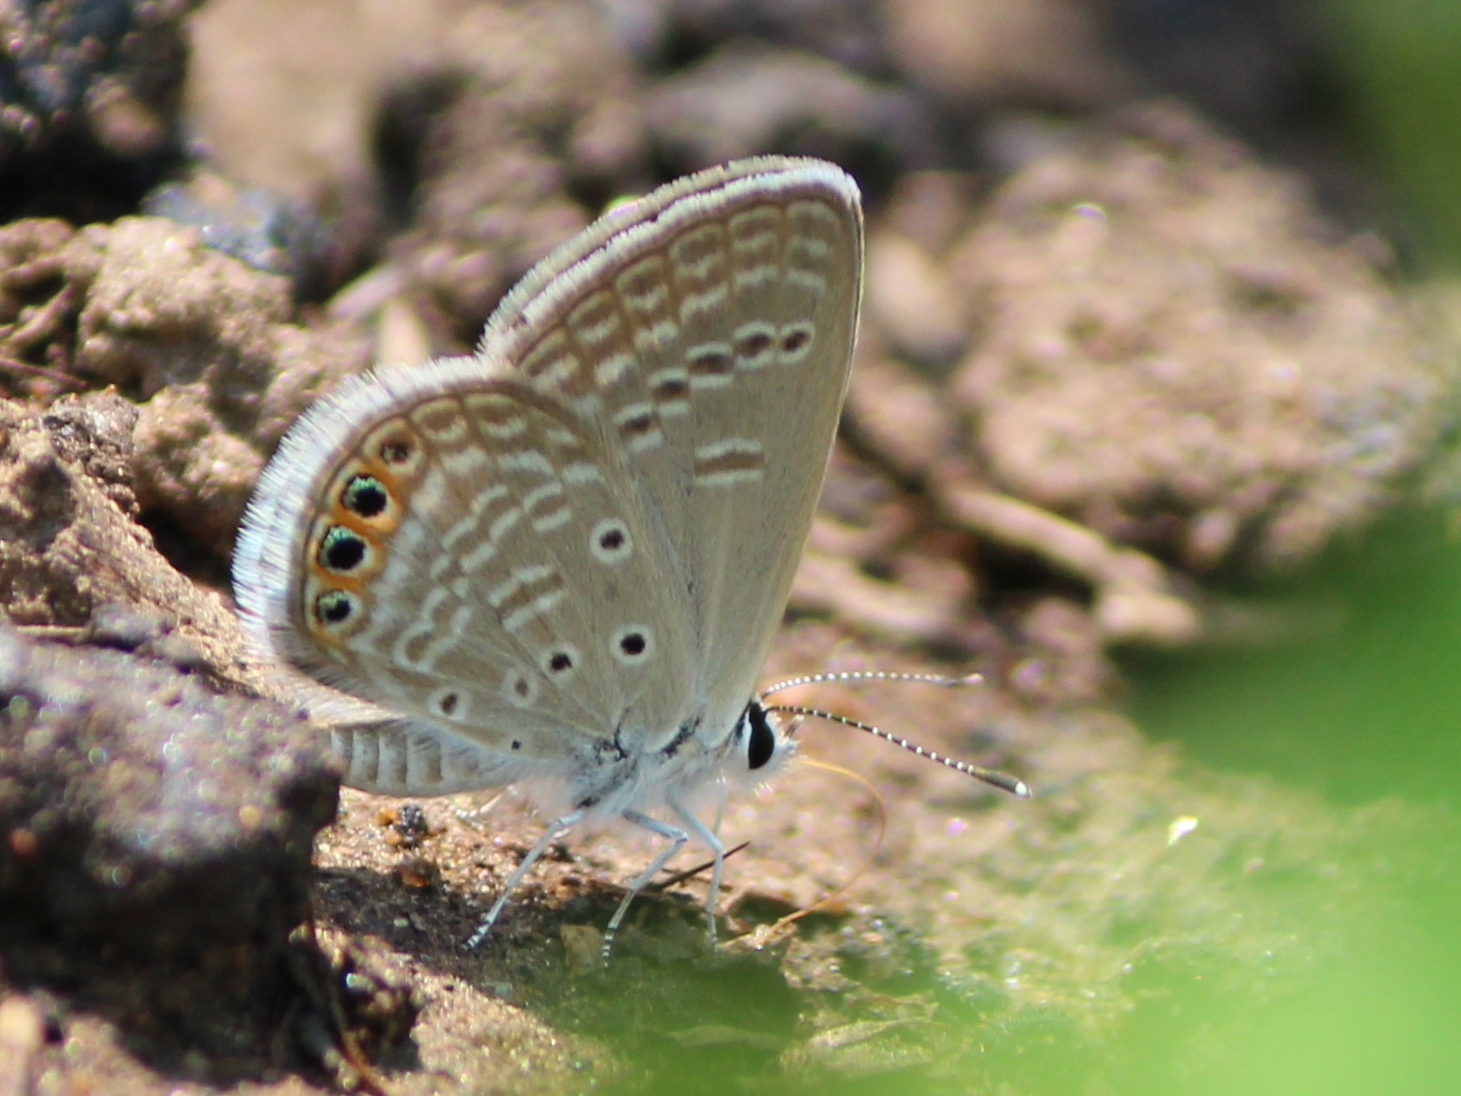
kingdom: Animalia
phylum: Arthropoda
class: Insecta
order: Lepidoptera
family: Lycaenidae
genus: Freyeria
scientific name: Freyeria trochylus
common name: Grass jewel
